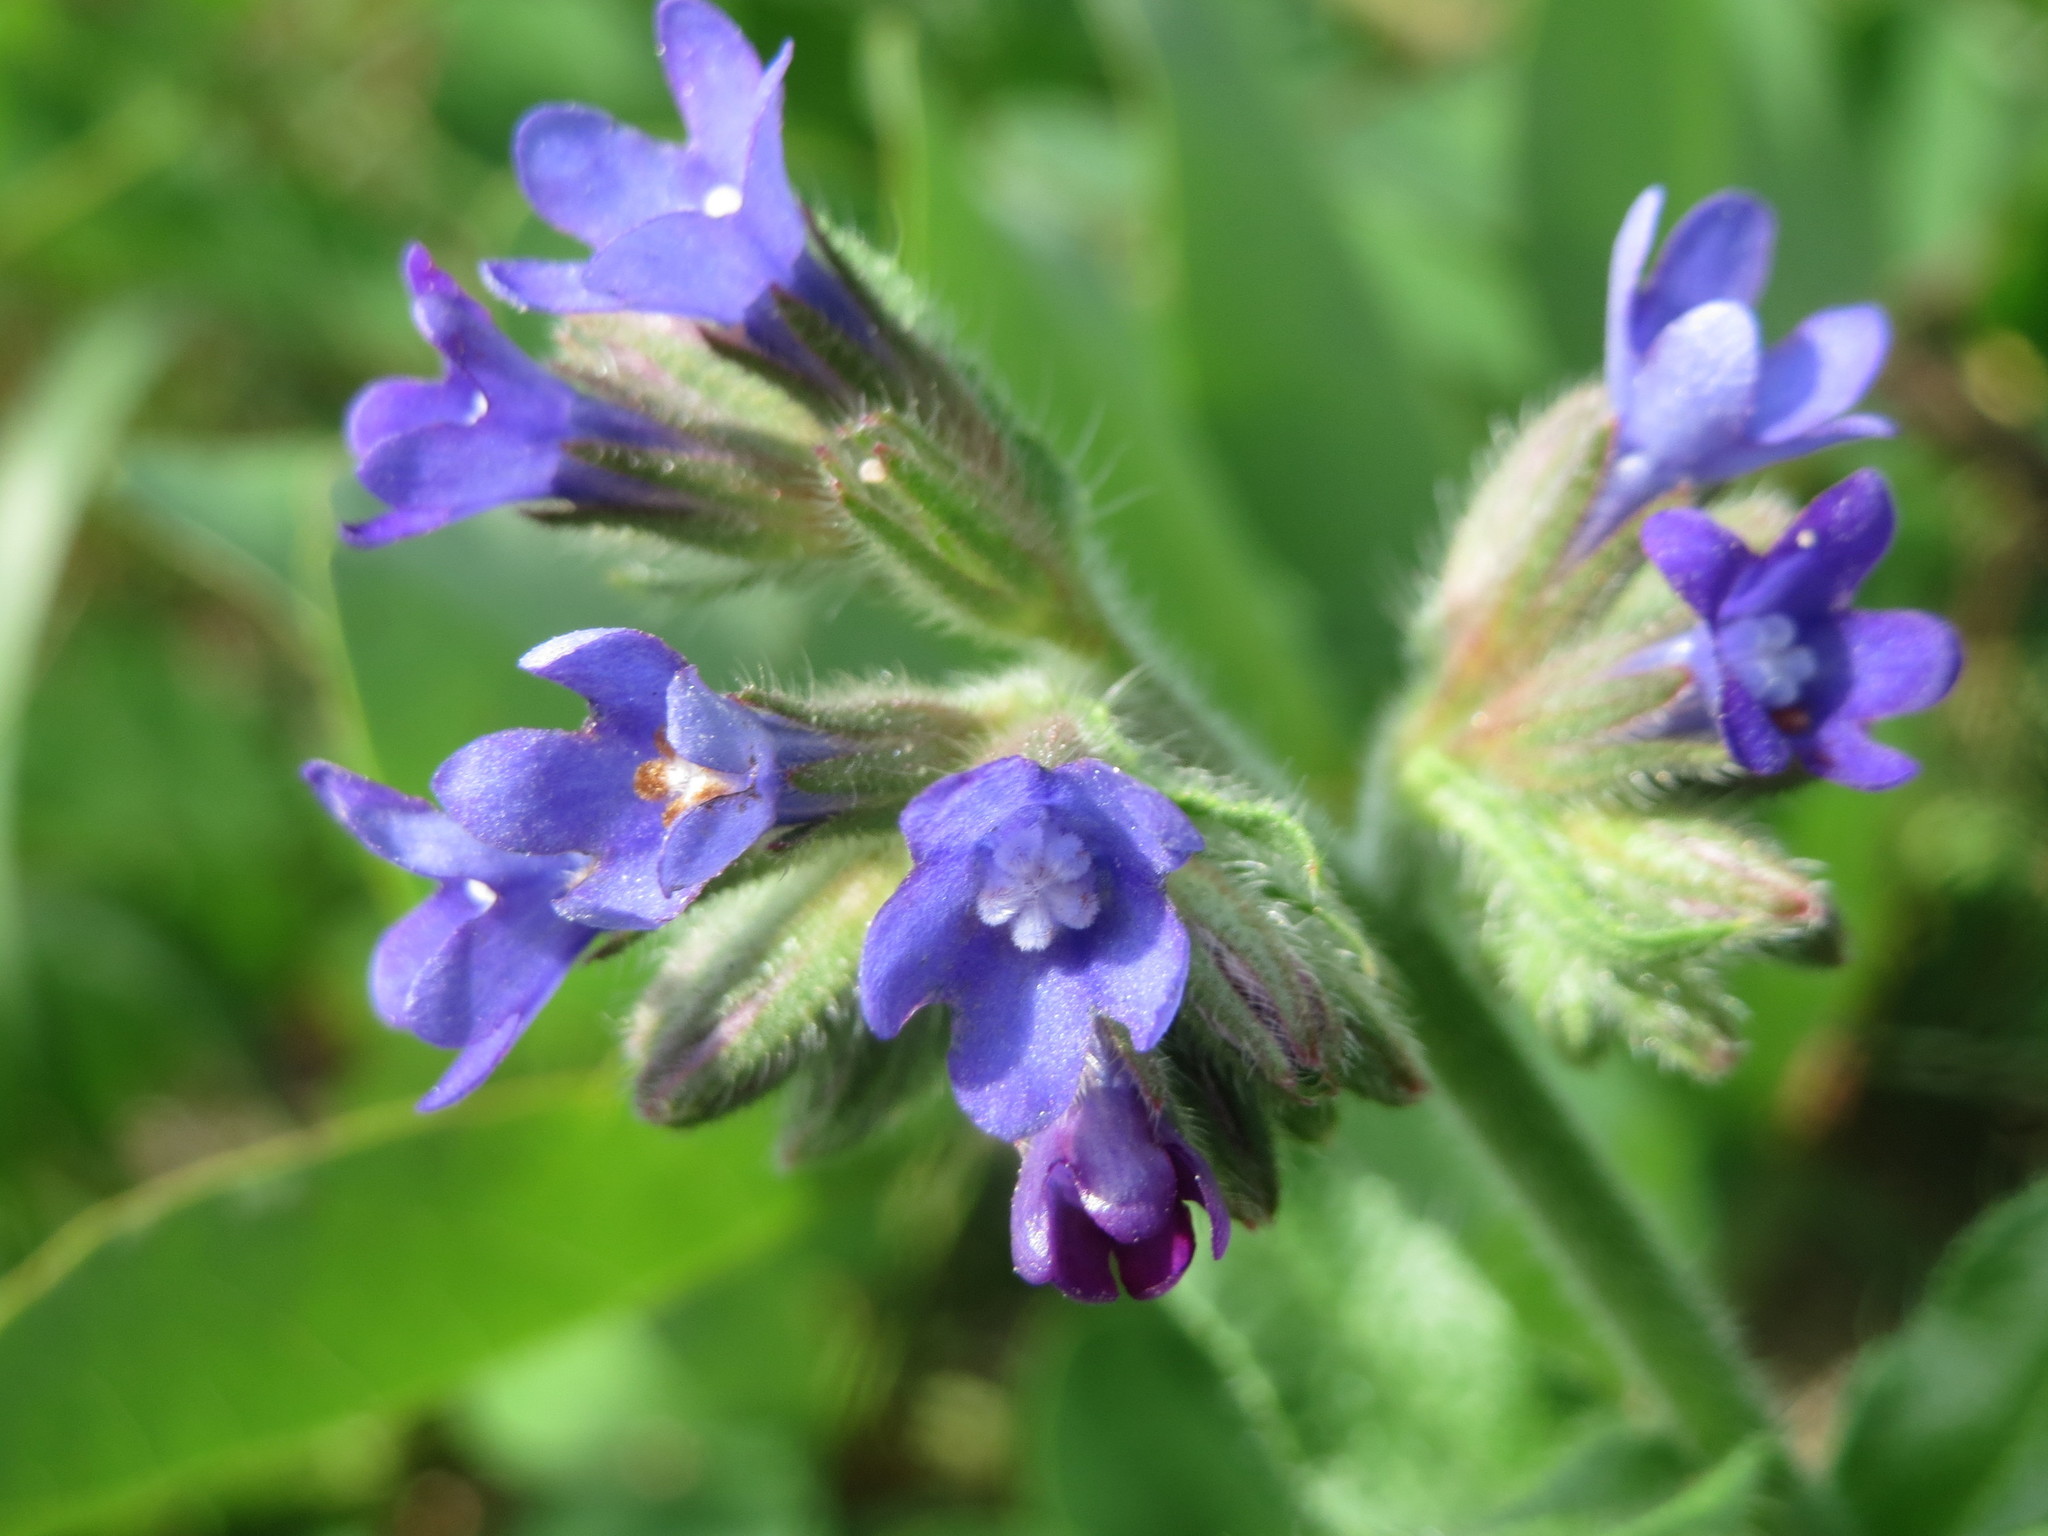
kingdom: Plantae
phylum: Tracheophyta
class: Magnoliopsida
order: Boraginales
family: Boraginaceae
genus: Anchusa
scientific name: Anchusa officinalis
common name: Alkanet
